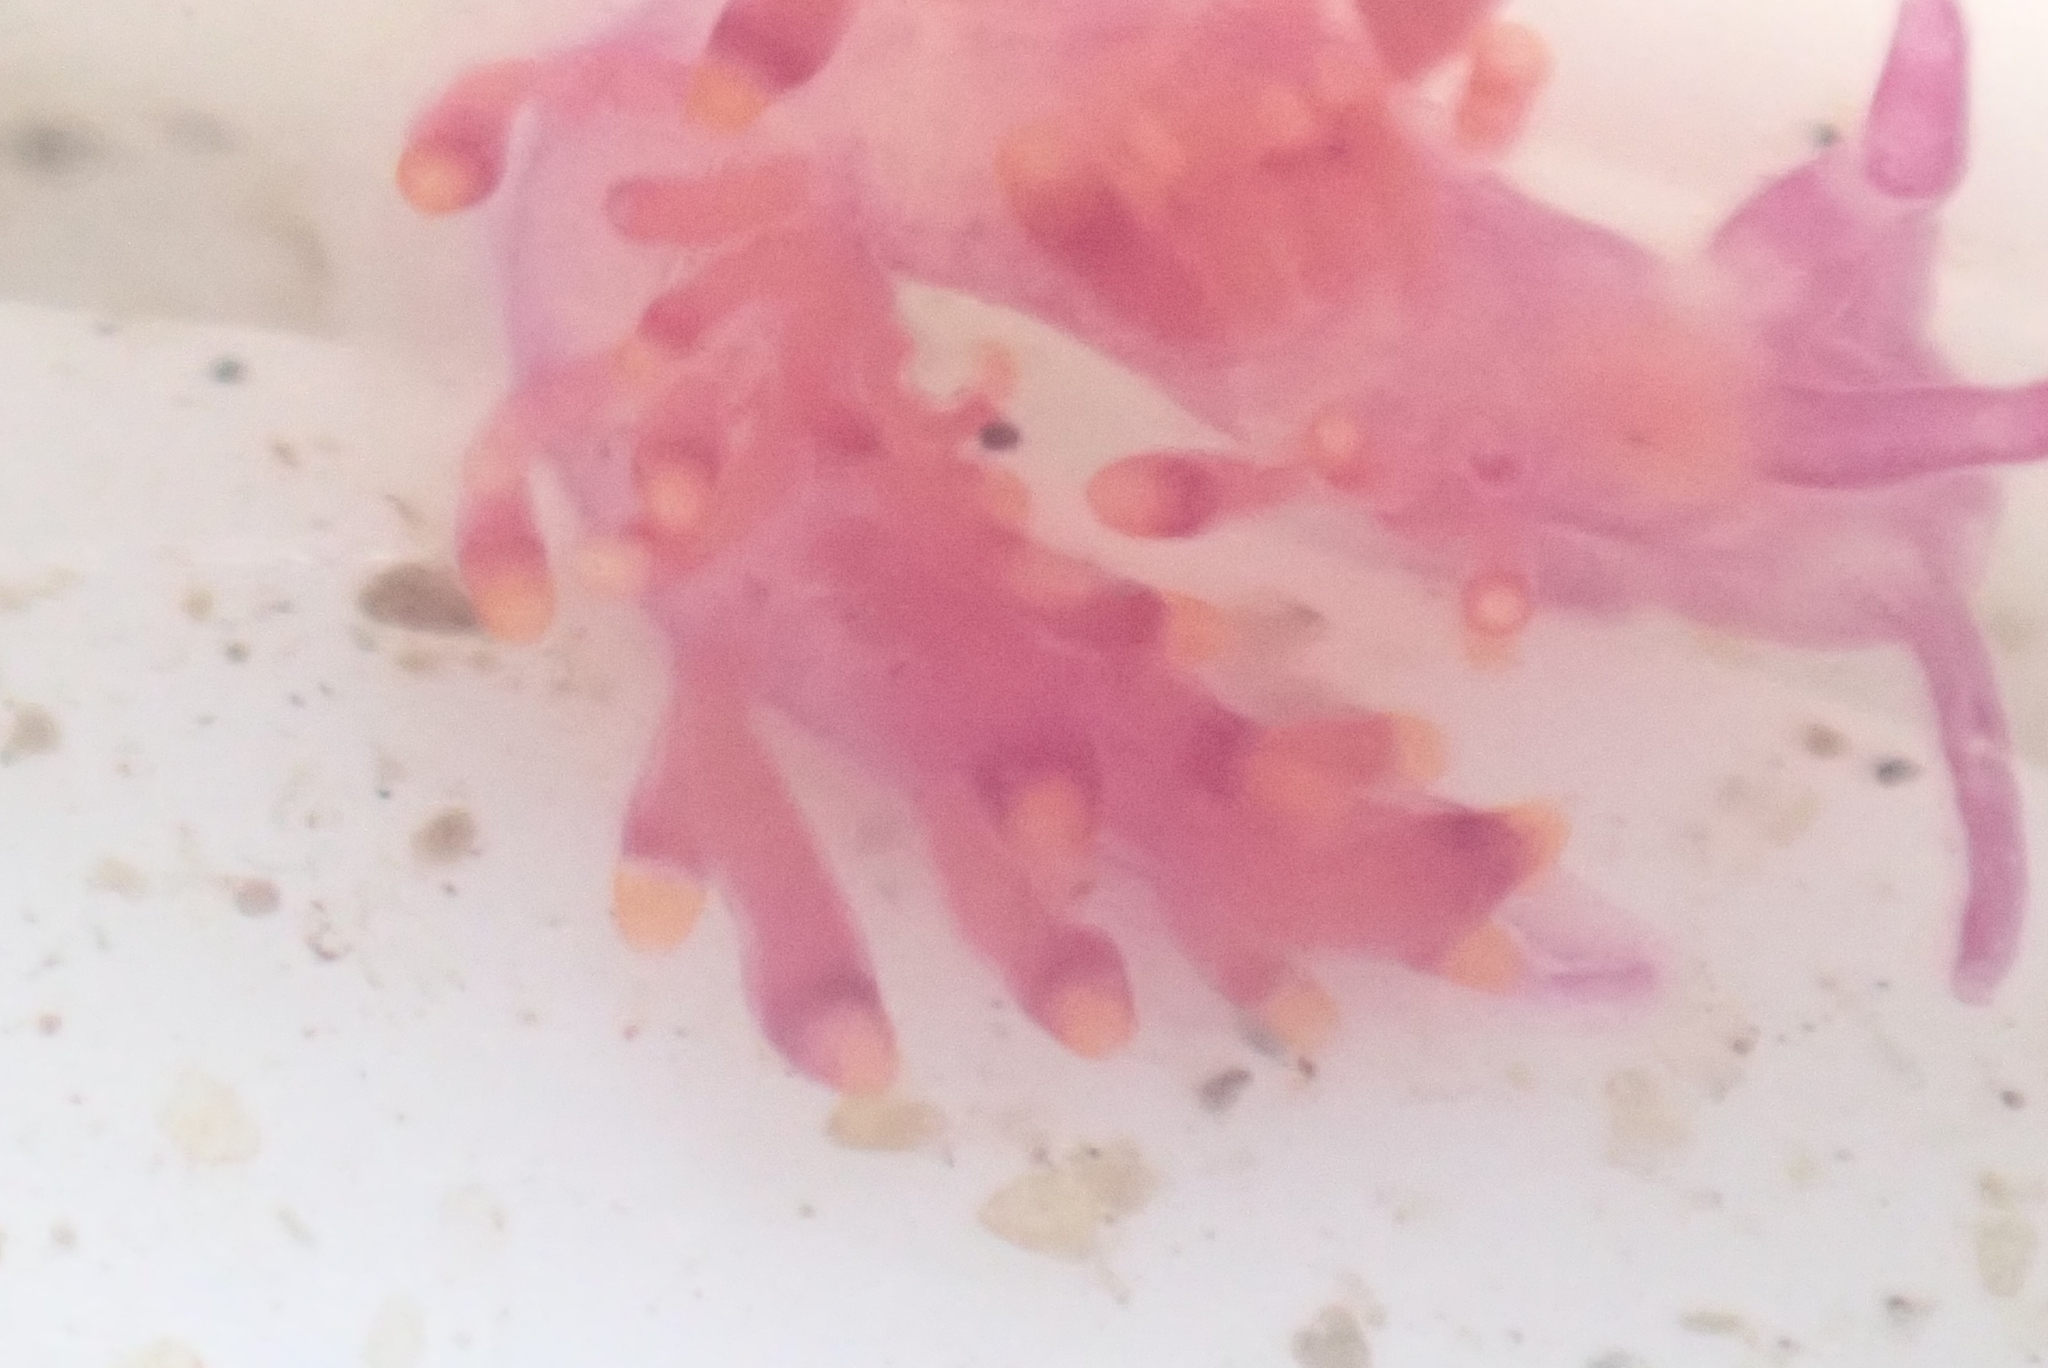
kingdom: Animalia
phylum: Mollusca
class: Gastropoda
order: Nudibranchia
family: Trinchesiidae
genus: Trinchesia
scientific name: Trinchesia beta
